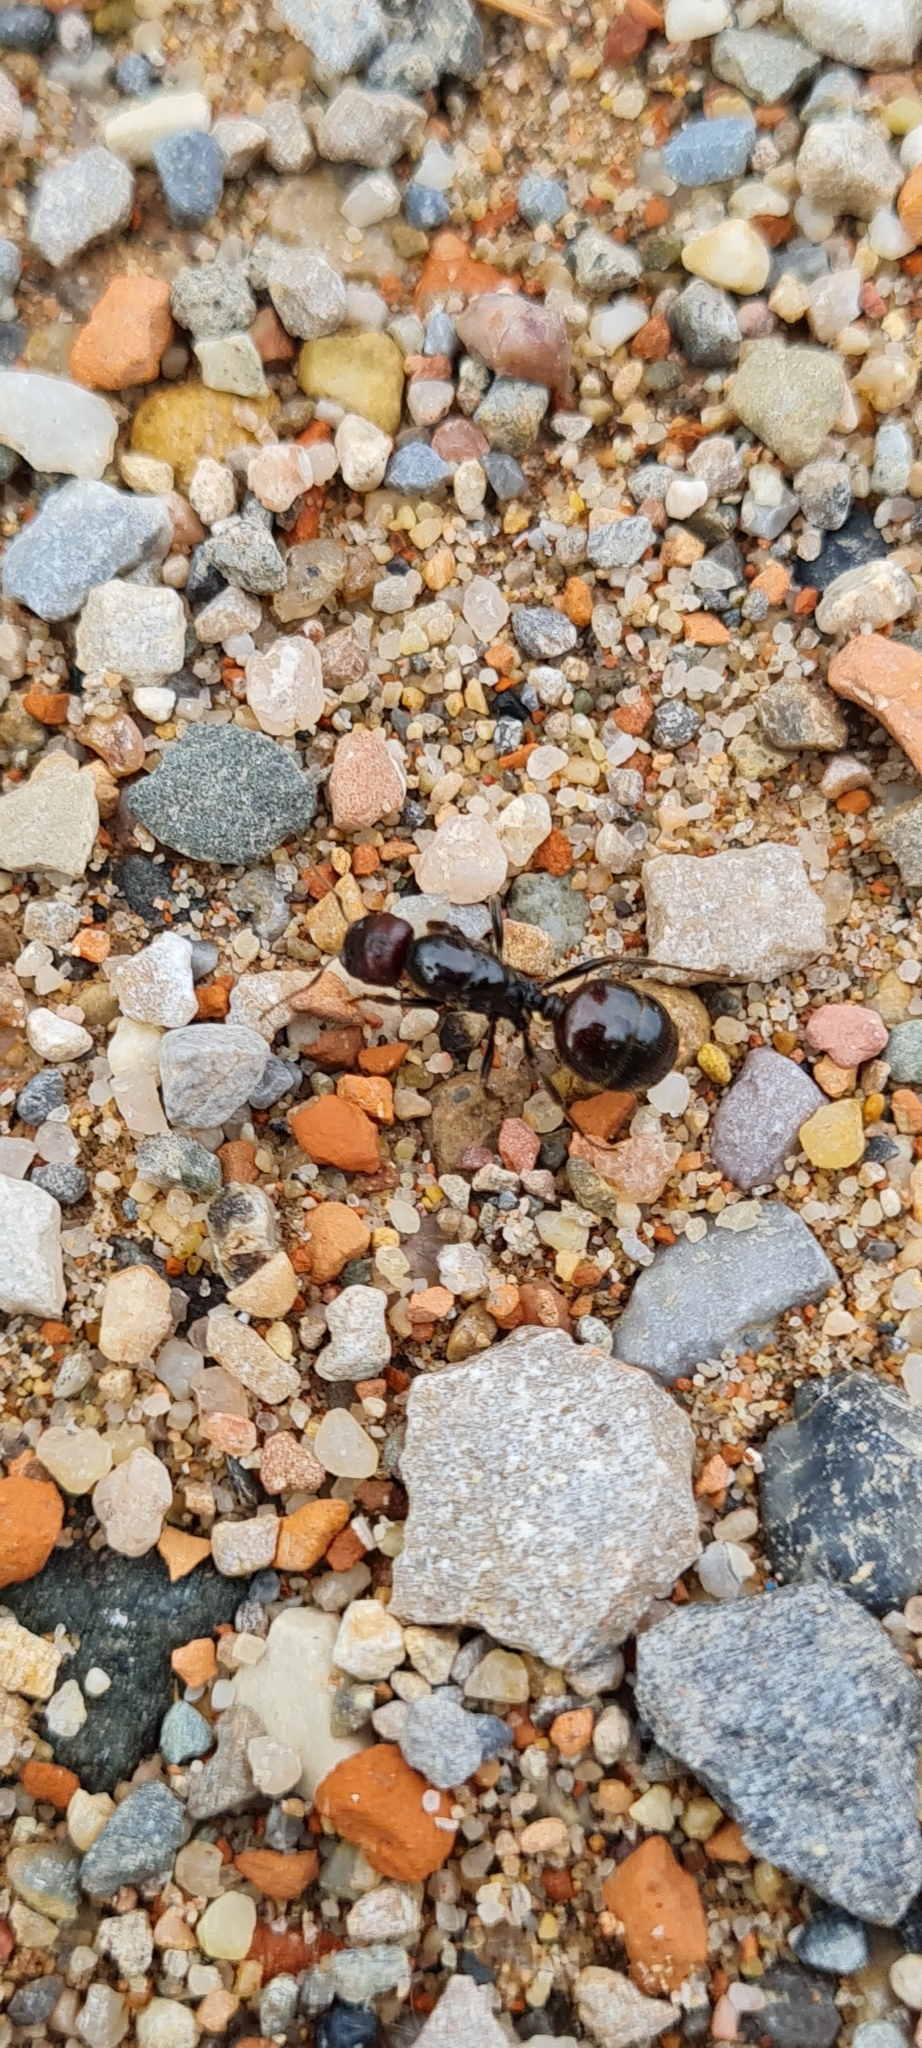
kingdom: Animalia
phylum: Arthropoda
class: Insecta
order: Hymenoptera
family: Formicidae
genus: Messor
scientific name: Messor barbarus
